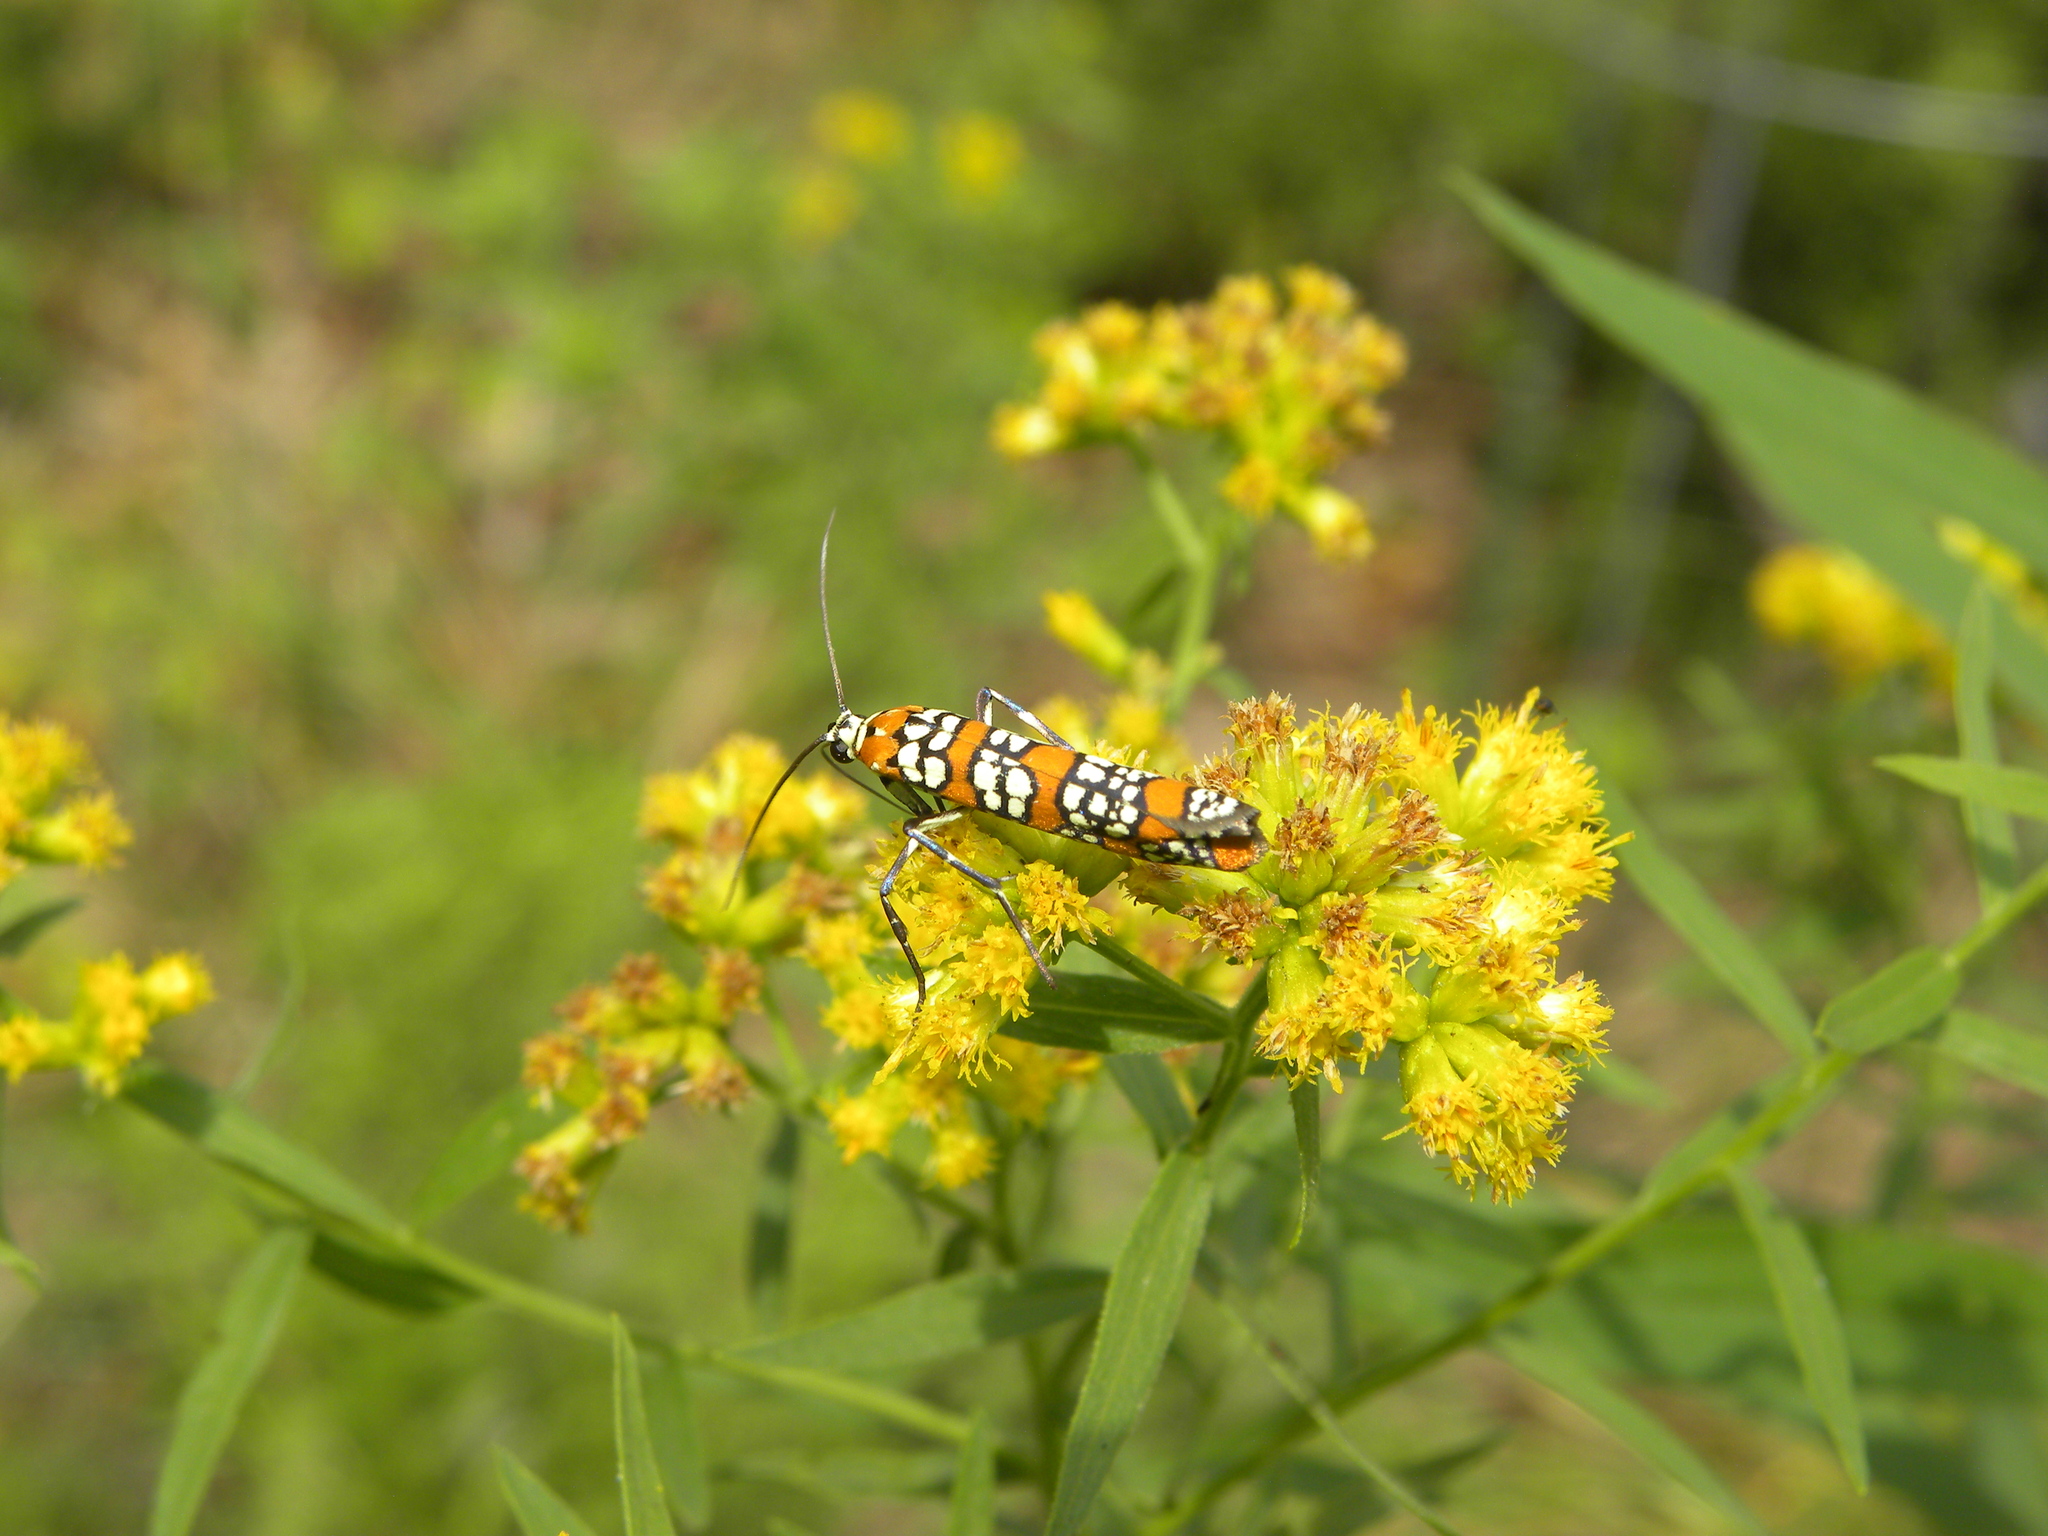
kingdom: Plantae
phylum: Tracheophyta
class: Magnoliopsida
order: Asterales
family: Asteraceae
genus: Euthamia
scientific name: Euthamia graminifolia
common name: Common goldentop
